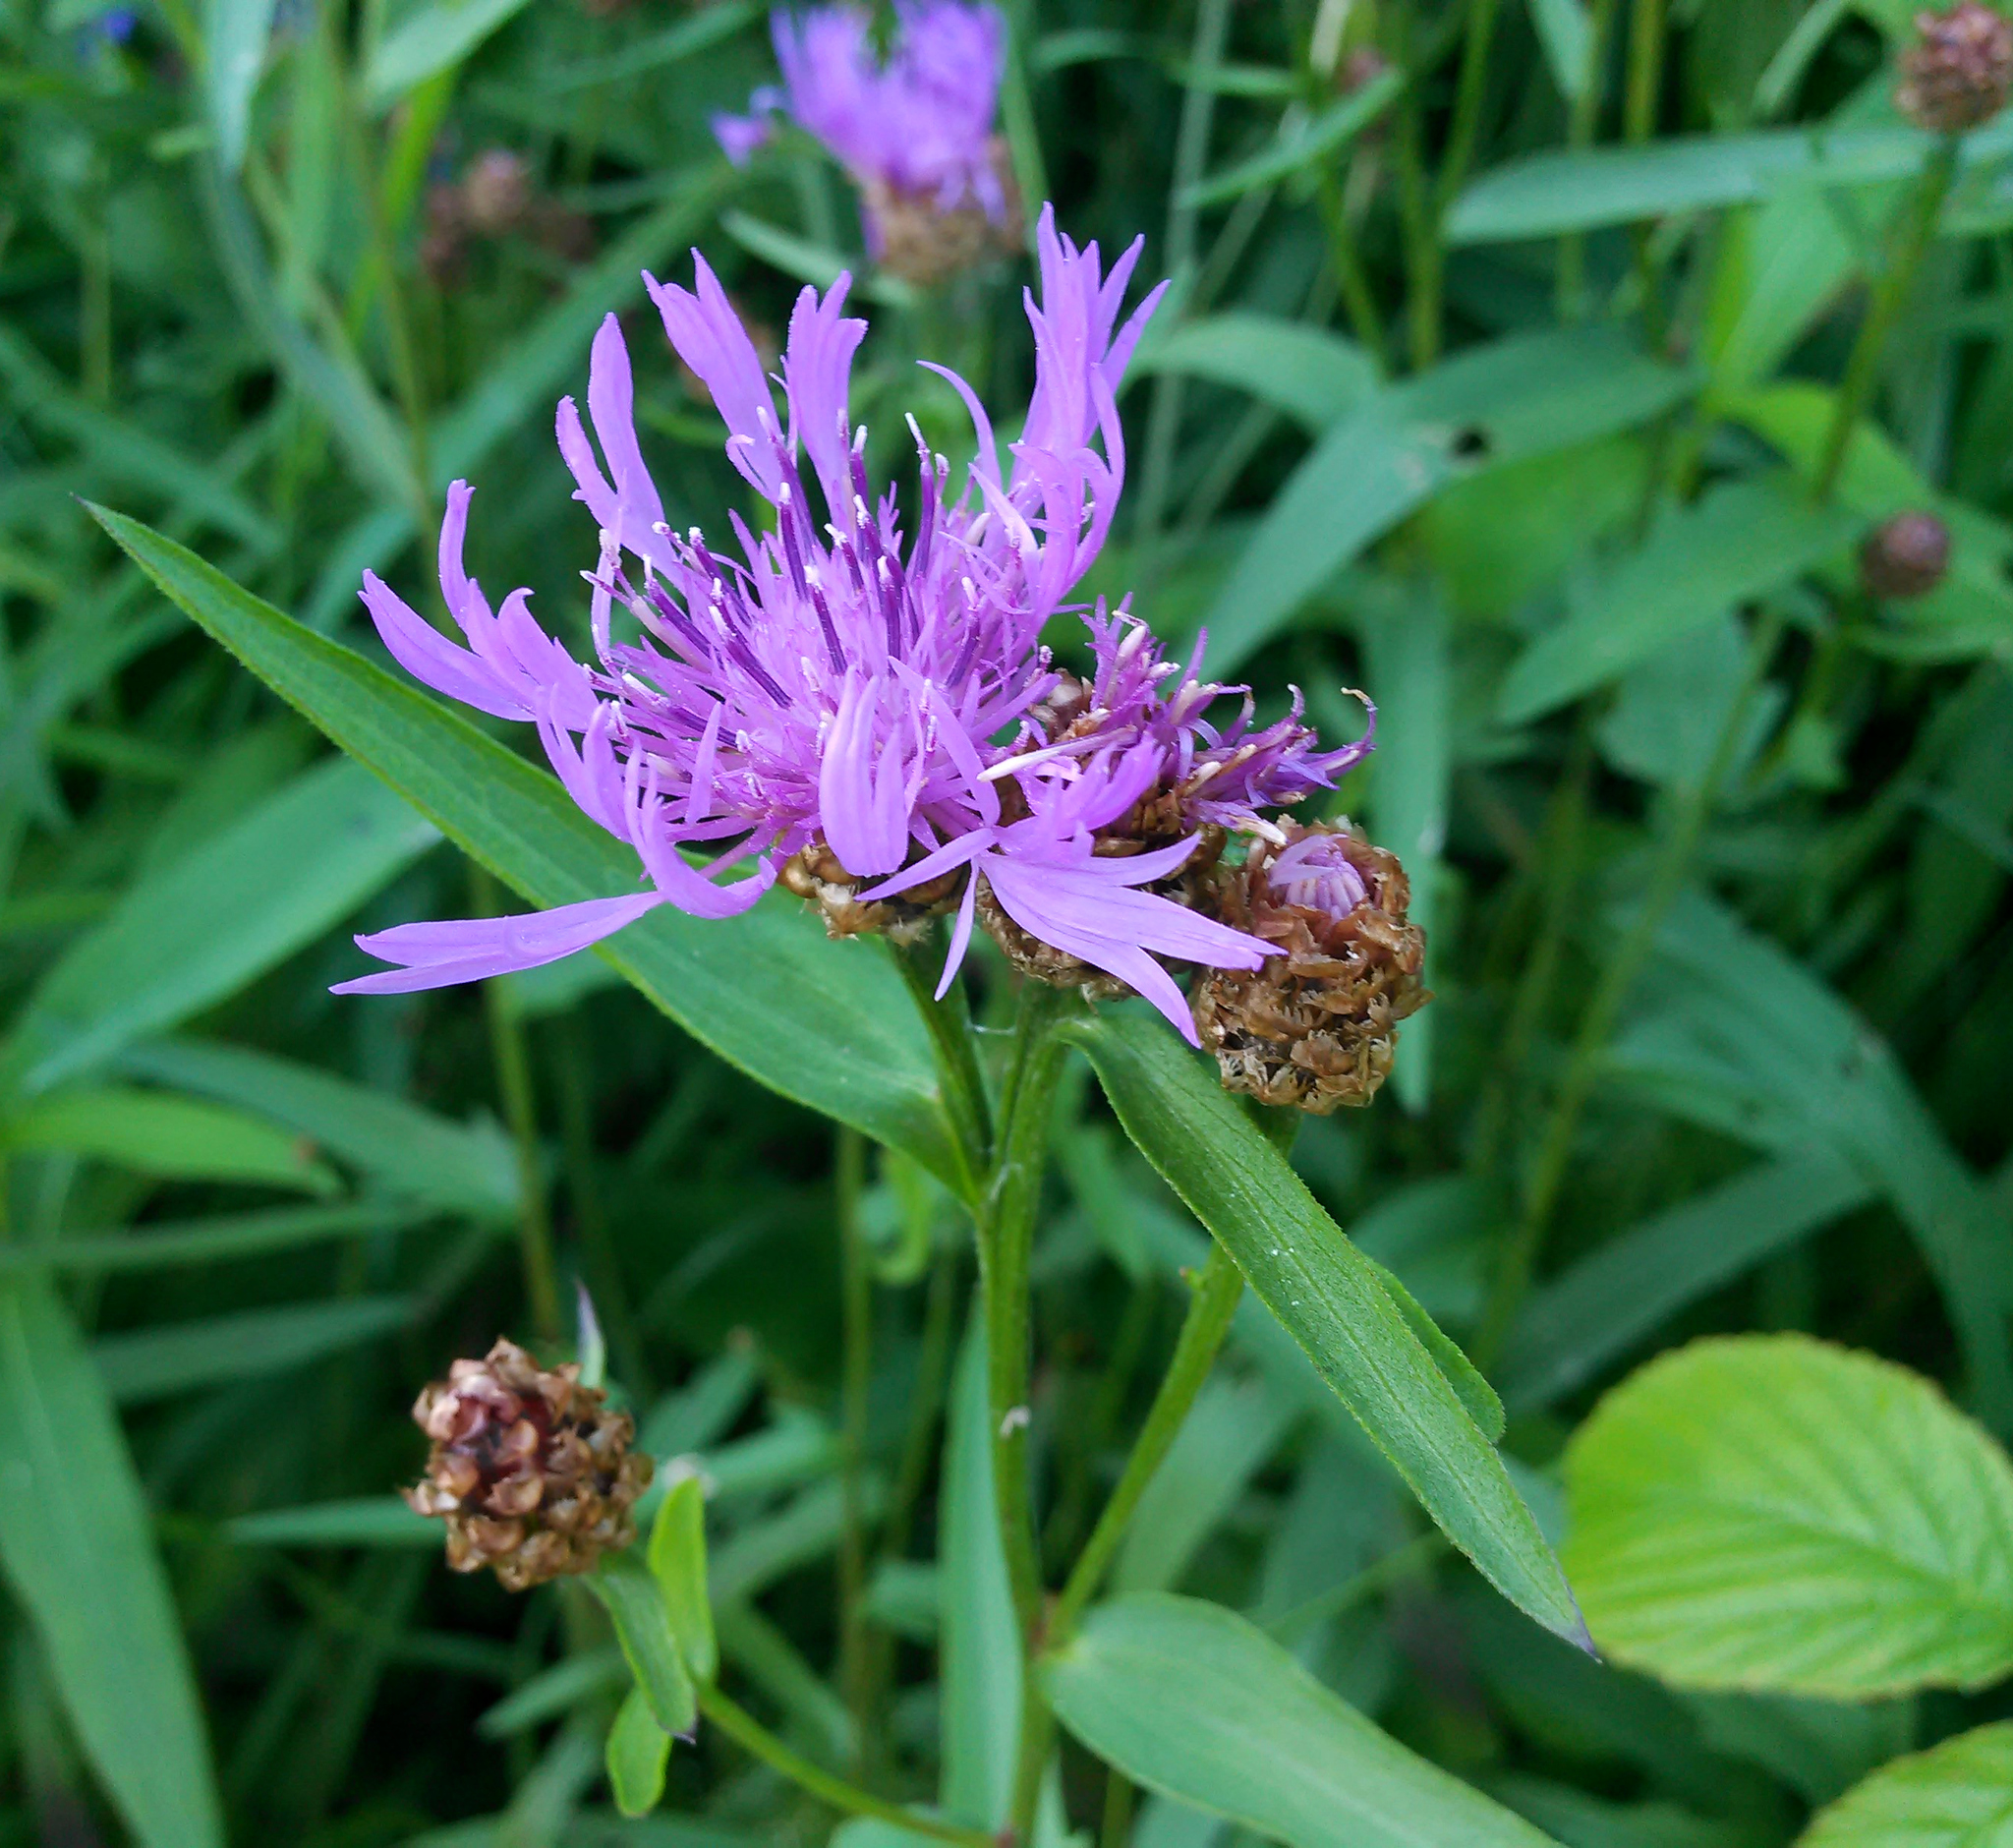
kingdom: Plantae
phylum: Tracheophyta
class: Magnoliopsida
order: Asterales
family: Asteraceae
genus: Centaurea
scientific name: Centaurea jacea
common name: Brown knapweed
